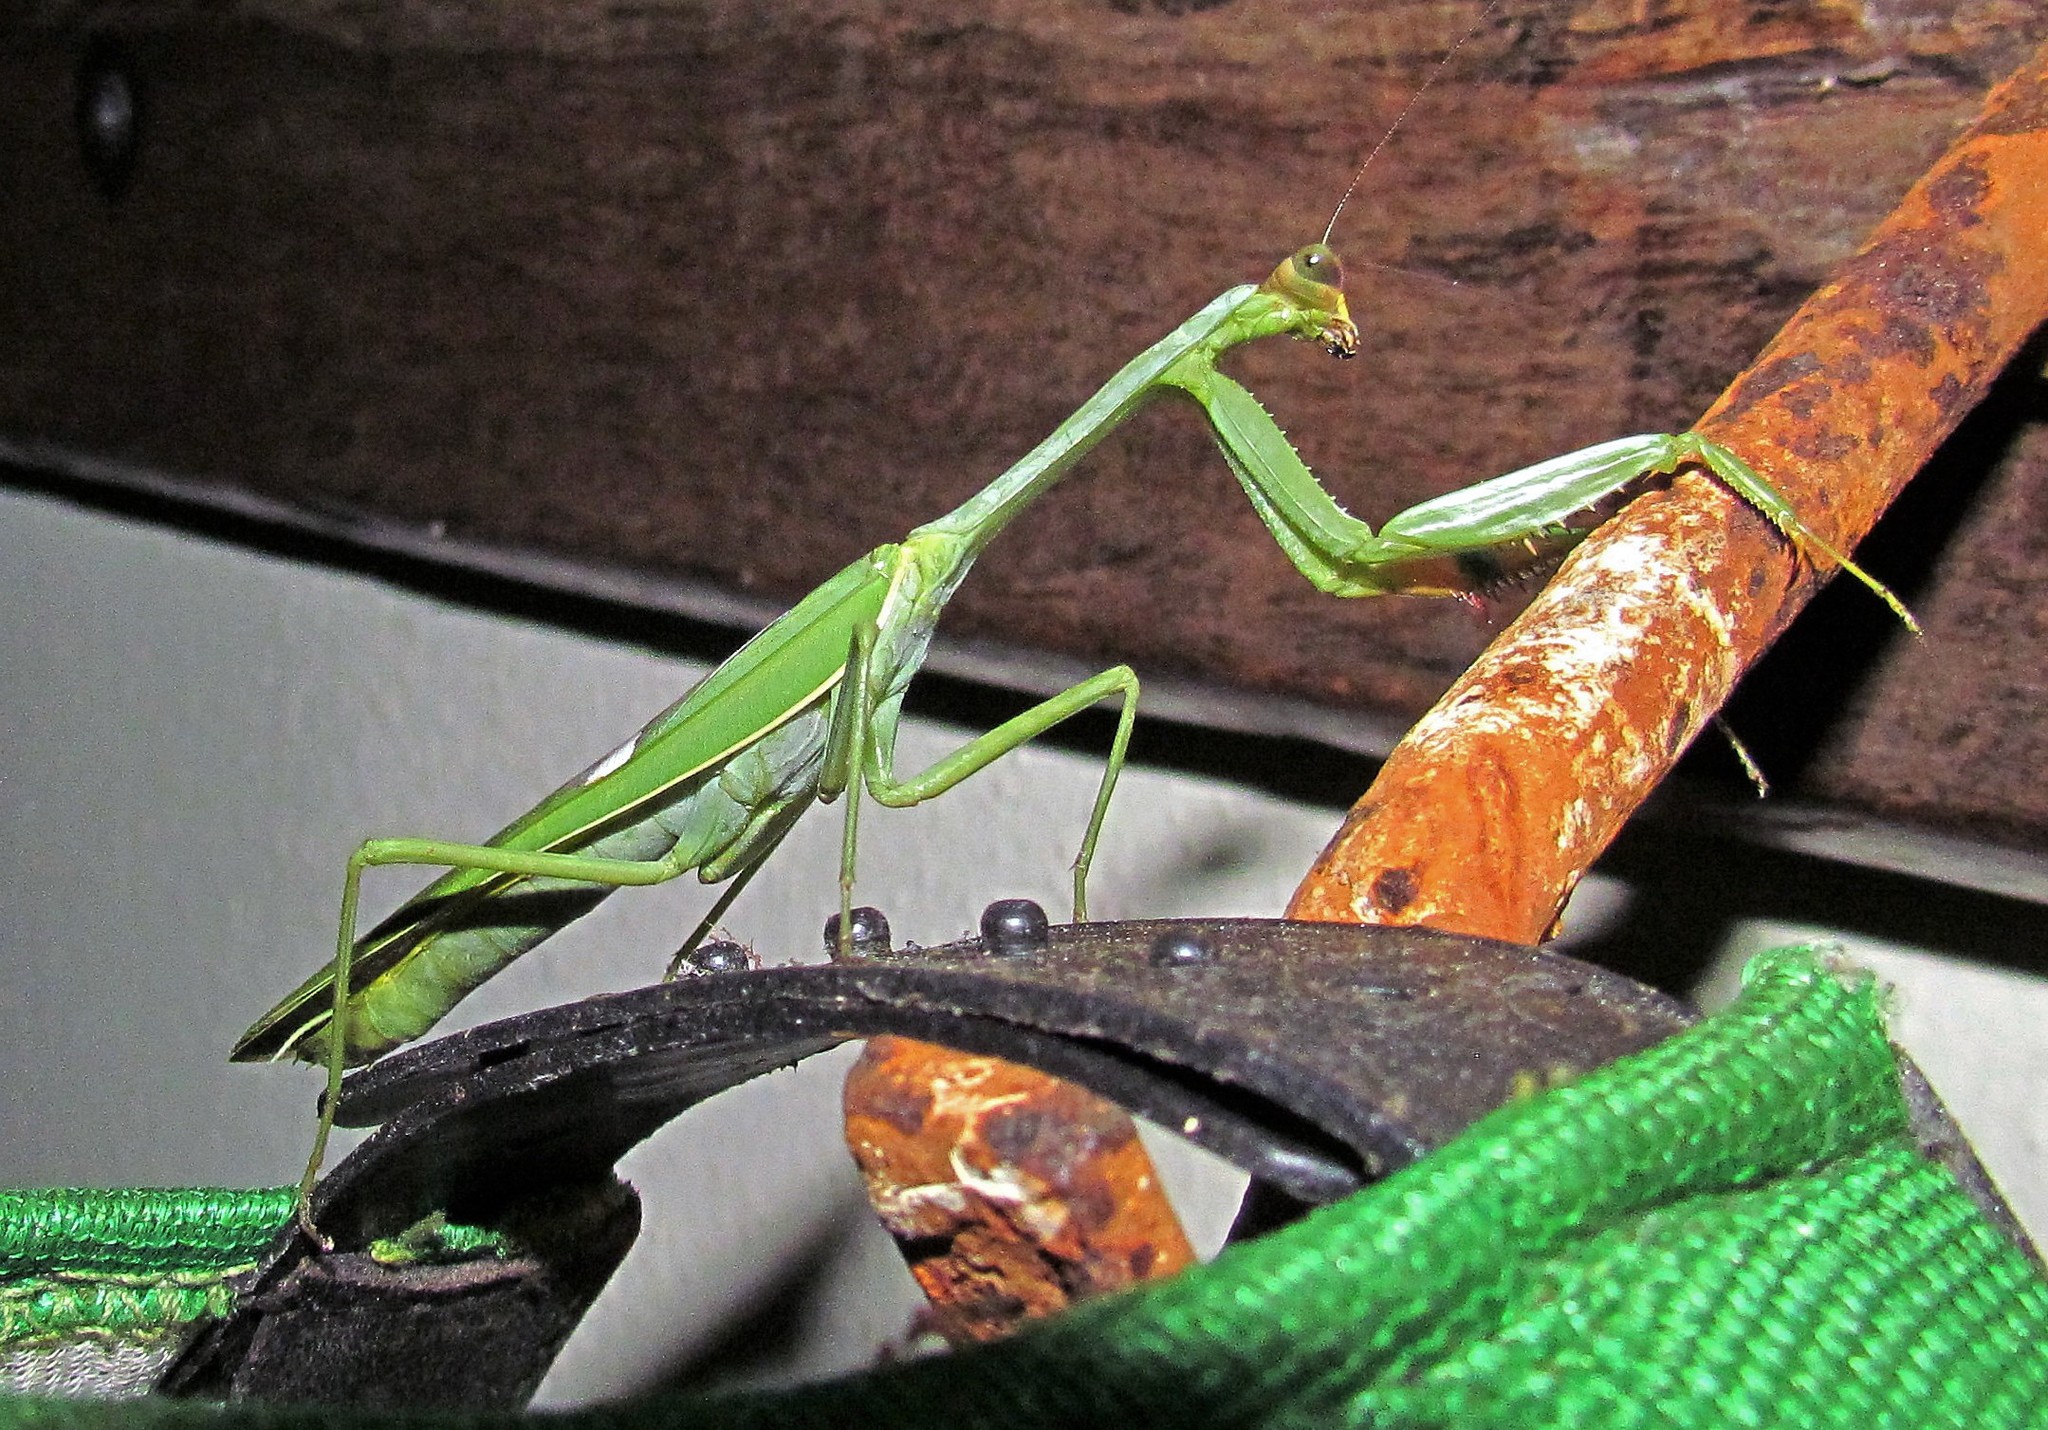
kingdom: Animalia
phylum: Arthropoda
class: Insecta
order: Mantodea
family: Mantidae
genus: Stagmatoptera
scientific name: Stagmatoptera hyaloptera
